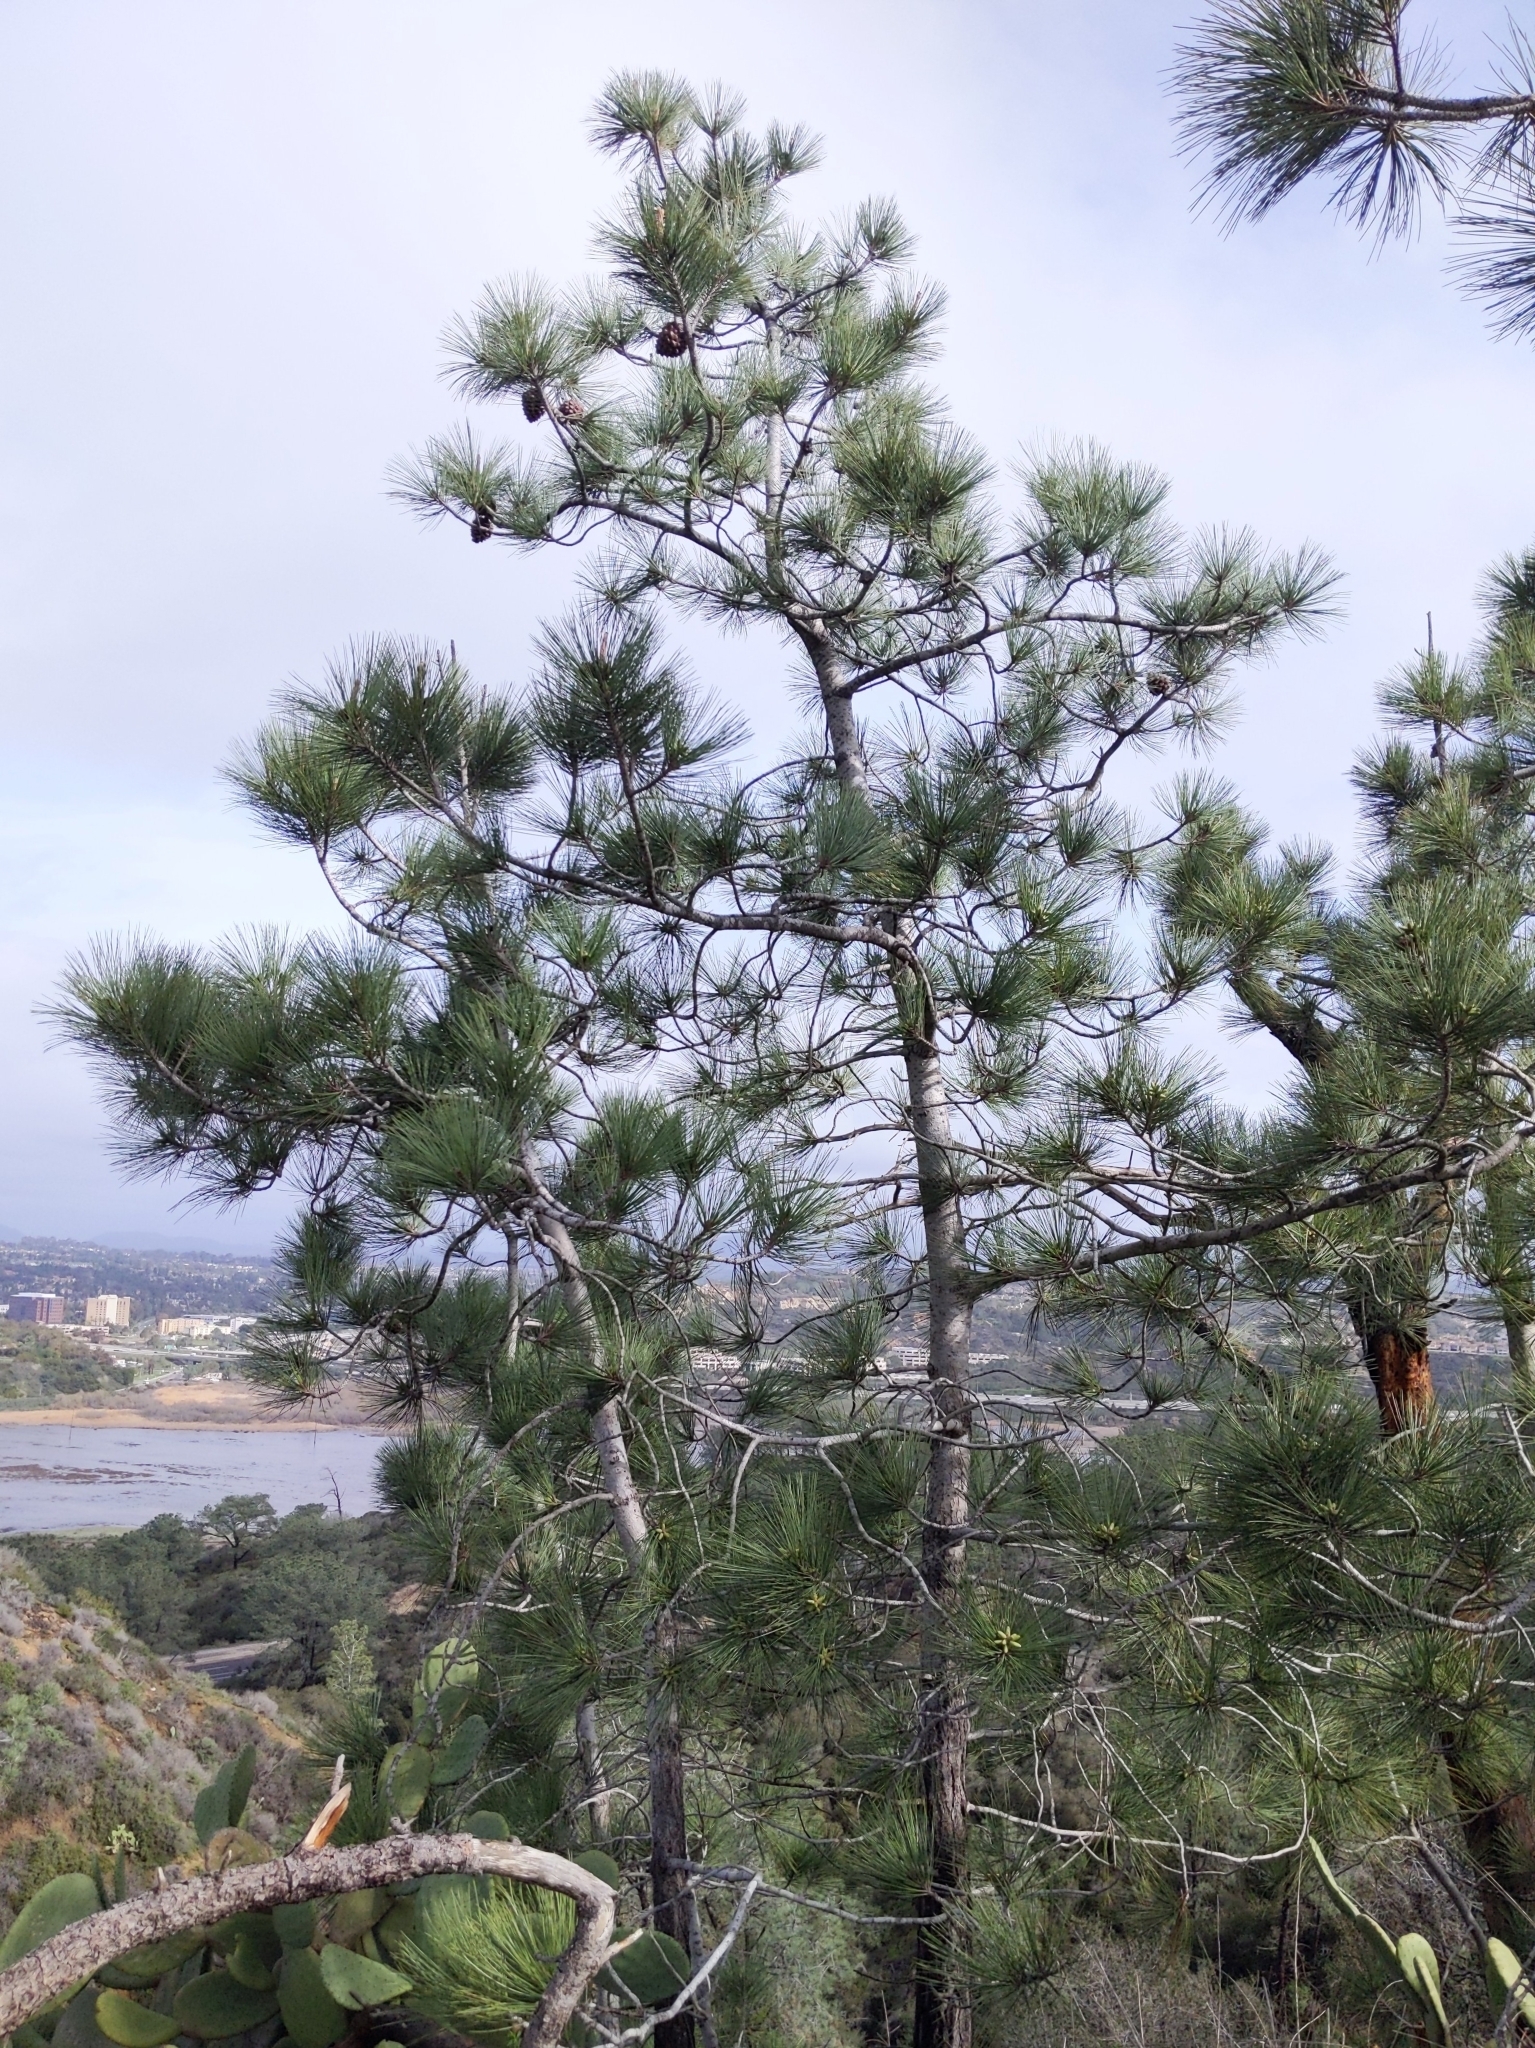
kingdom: Plantae
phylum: Tracheophyta
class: Pinopsida
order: Pinales
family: Pinaceae
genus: Pinus
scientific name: Pinus torreyana
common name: Torrey pine
